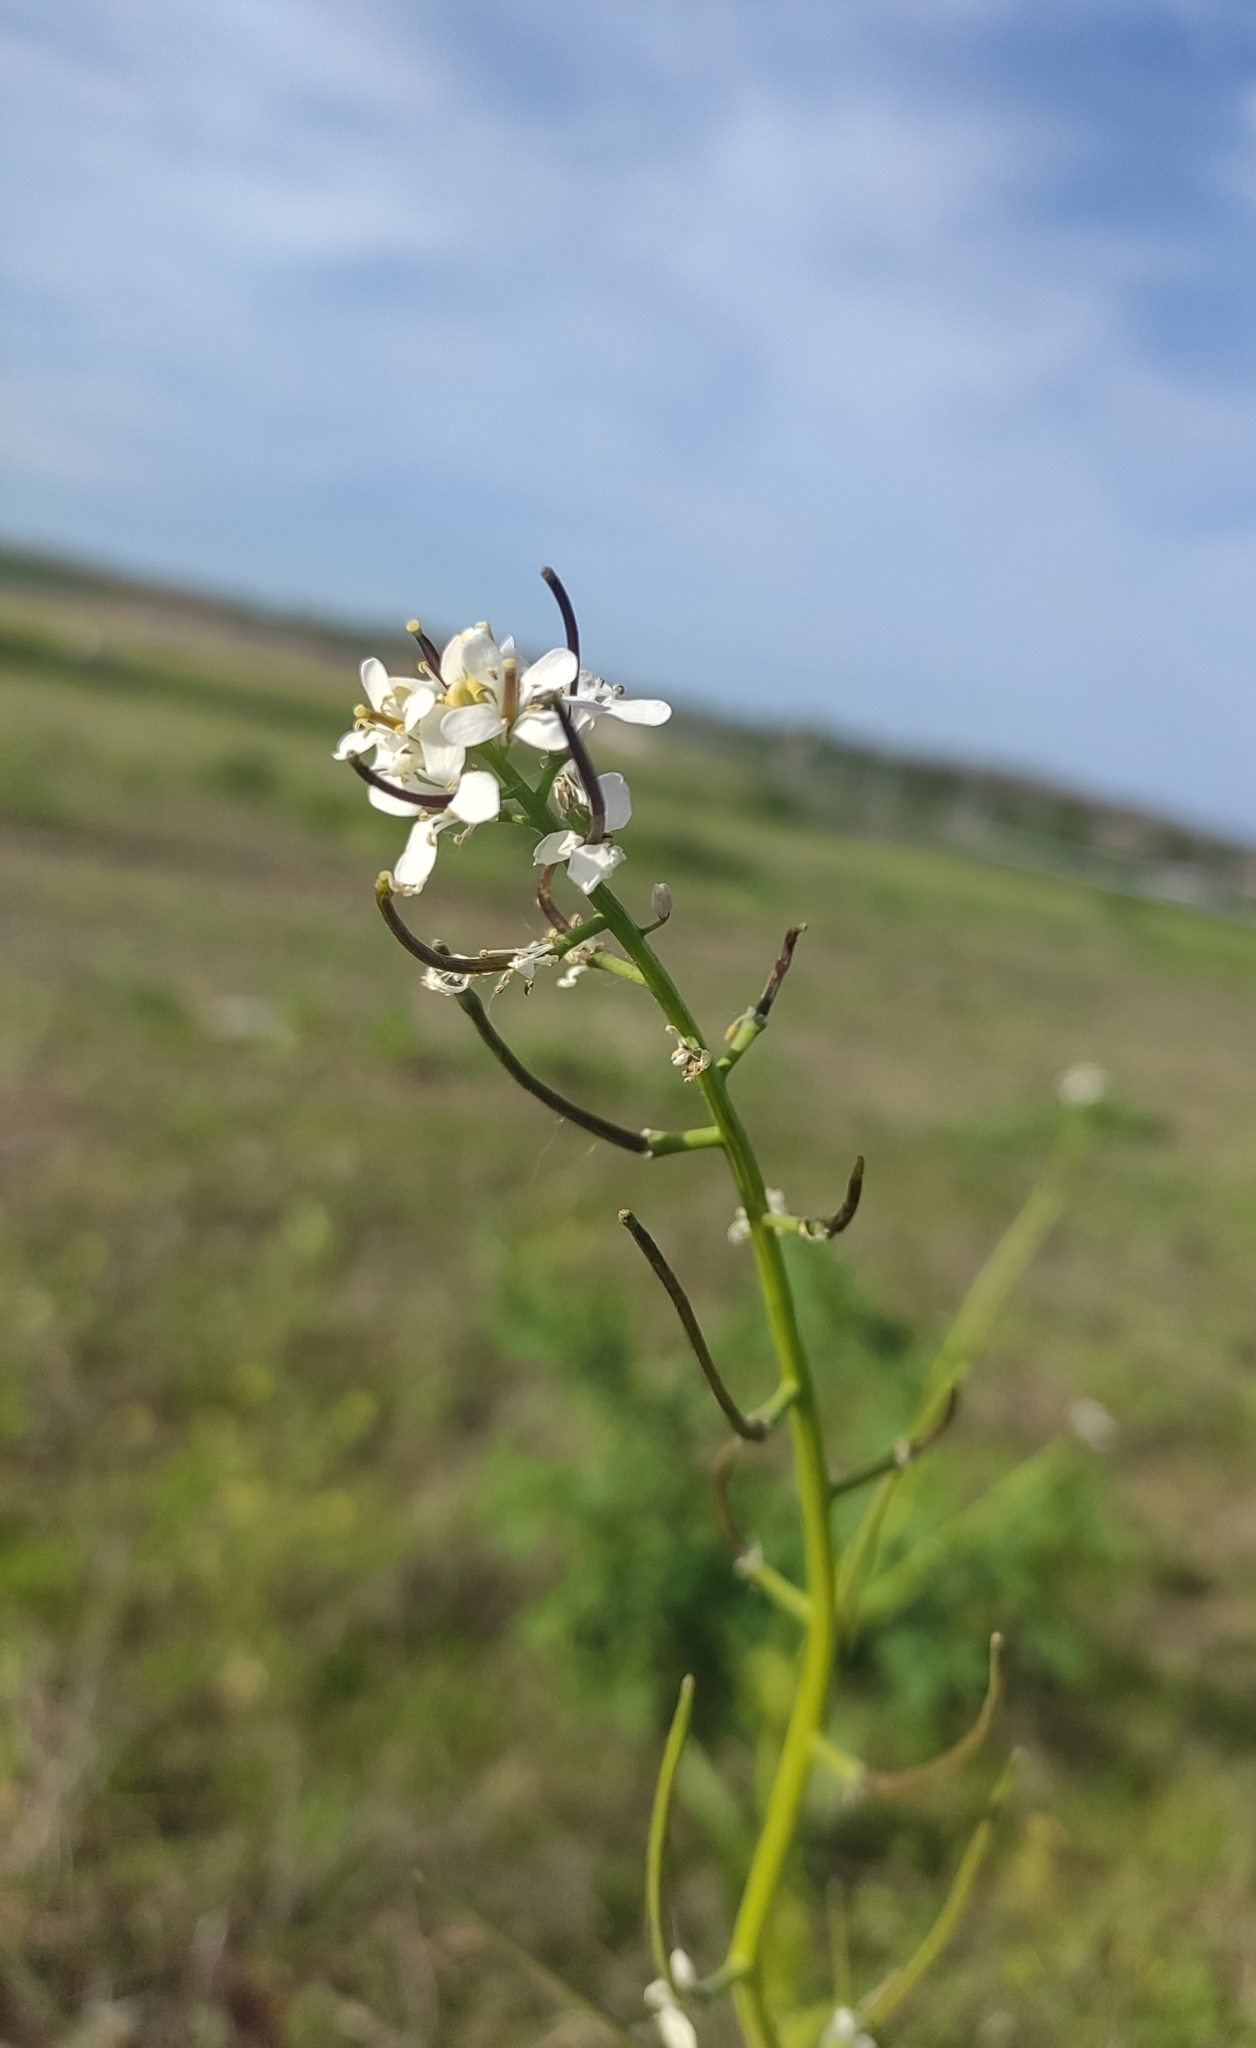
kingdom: Plantae
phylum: Tracheophyta
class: Magnoliopsida
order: Brassicales
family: Brassicaceae
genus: Alliaria
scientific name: Alliaria petiolata
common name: Garlic mustard
